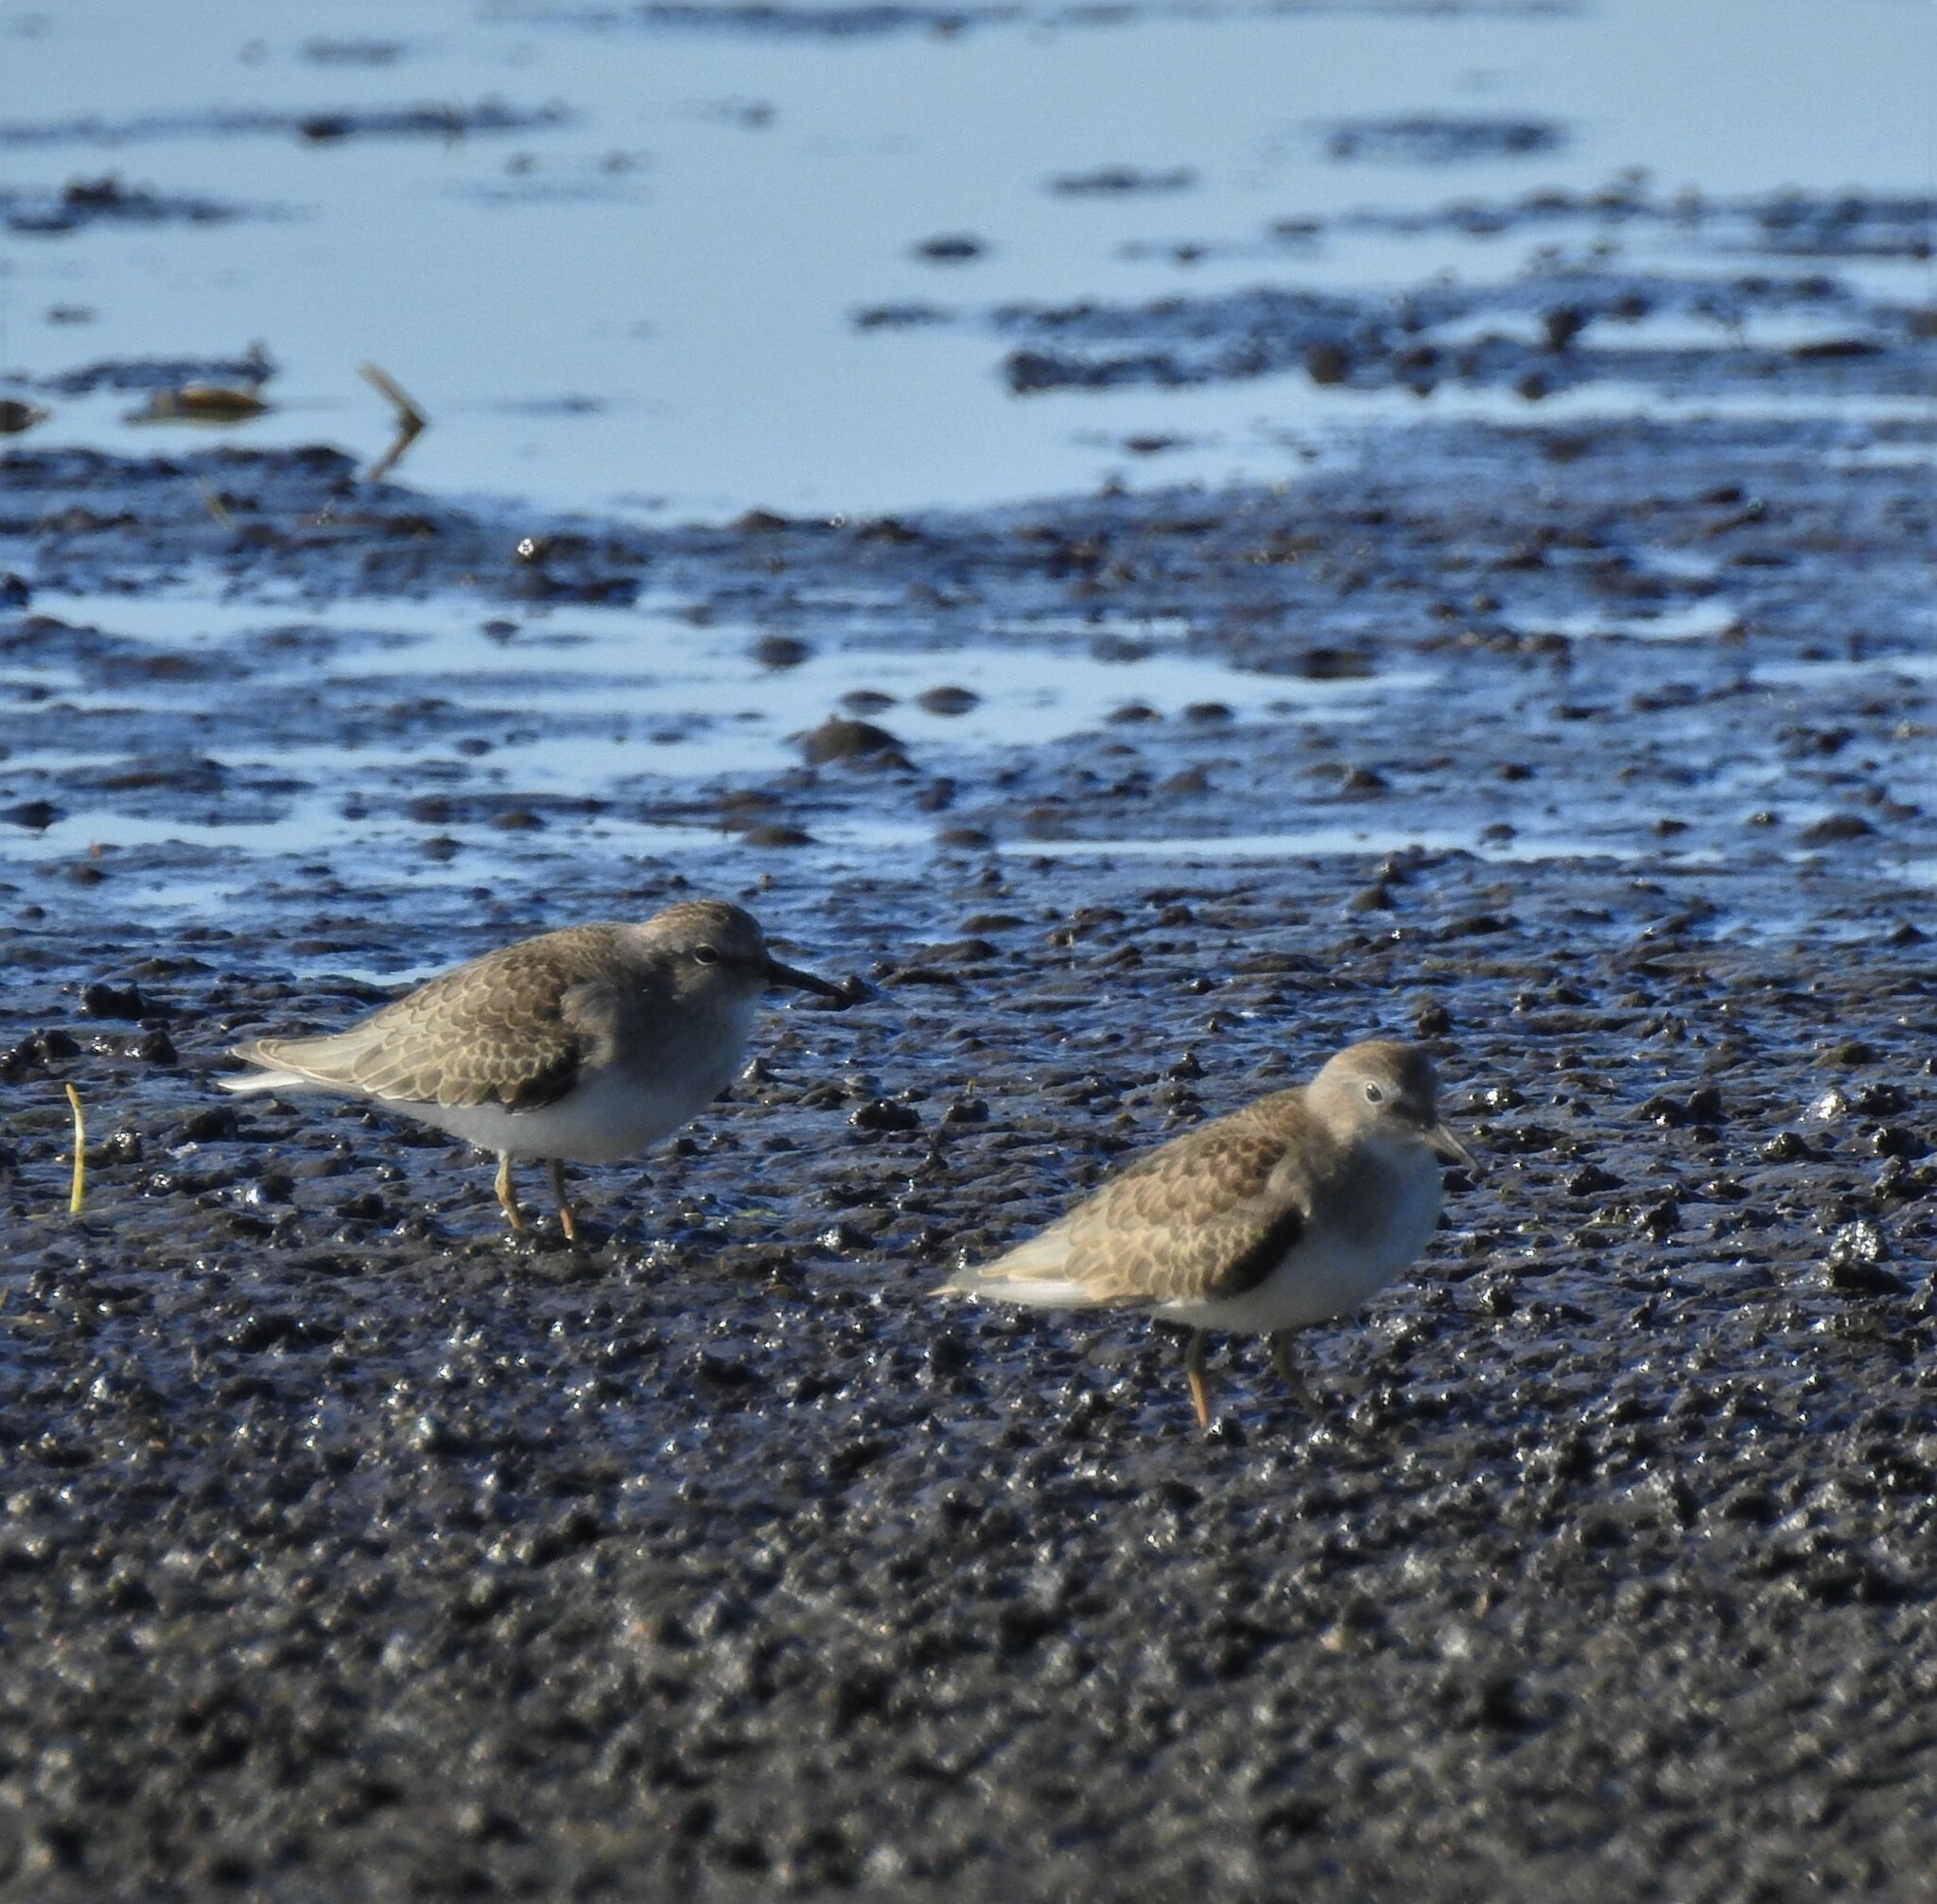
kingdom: Animalia
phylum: Chordata
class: Aves
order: Charadriiformes
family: Scolopacidae
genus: Calidris
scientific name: Calidris temminckii
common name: Temminck's stint
